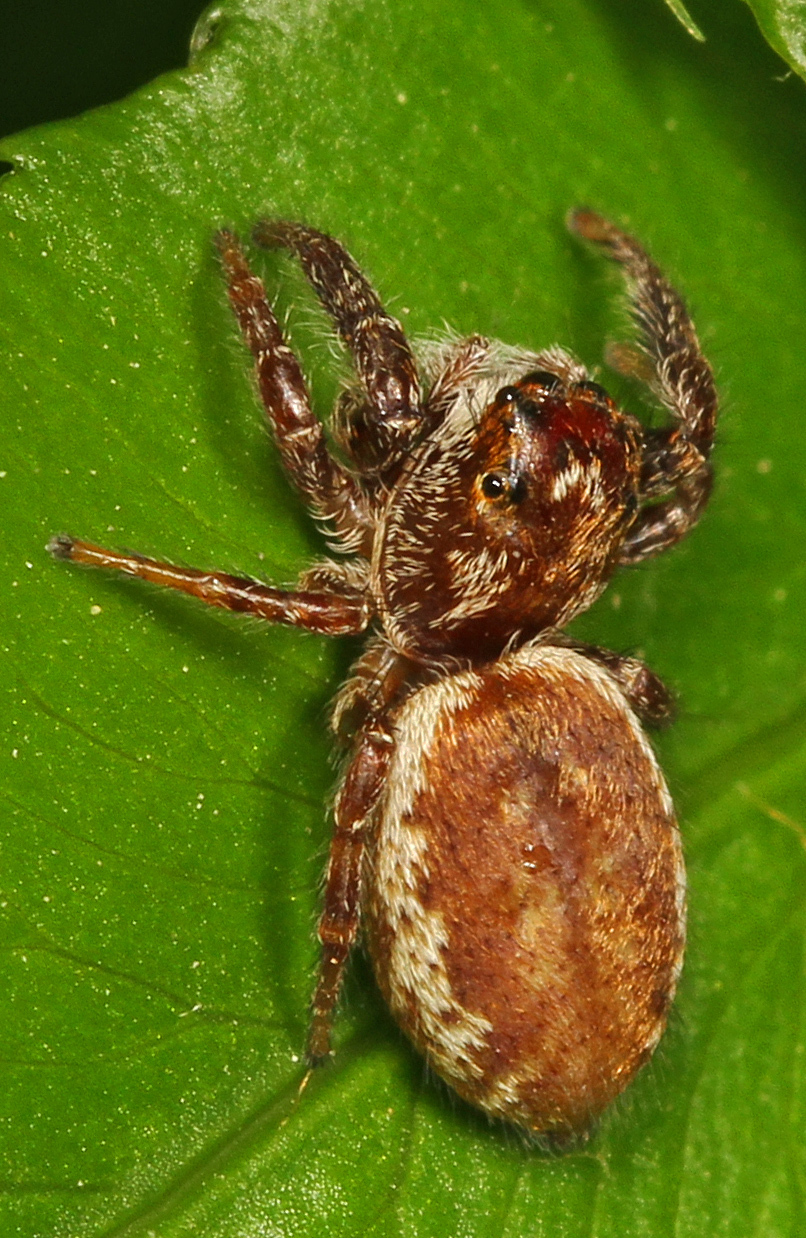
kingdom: Animalia
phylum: Arthropoda
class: Arachnida
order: Araneae
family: Salticidae
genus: Eris
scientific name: Eris militaris
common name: Bronze jumper
